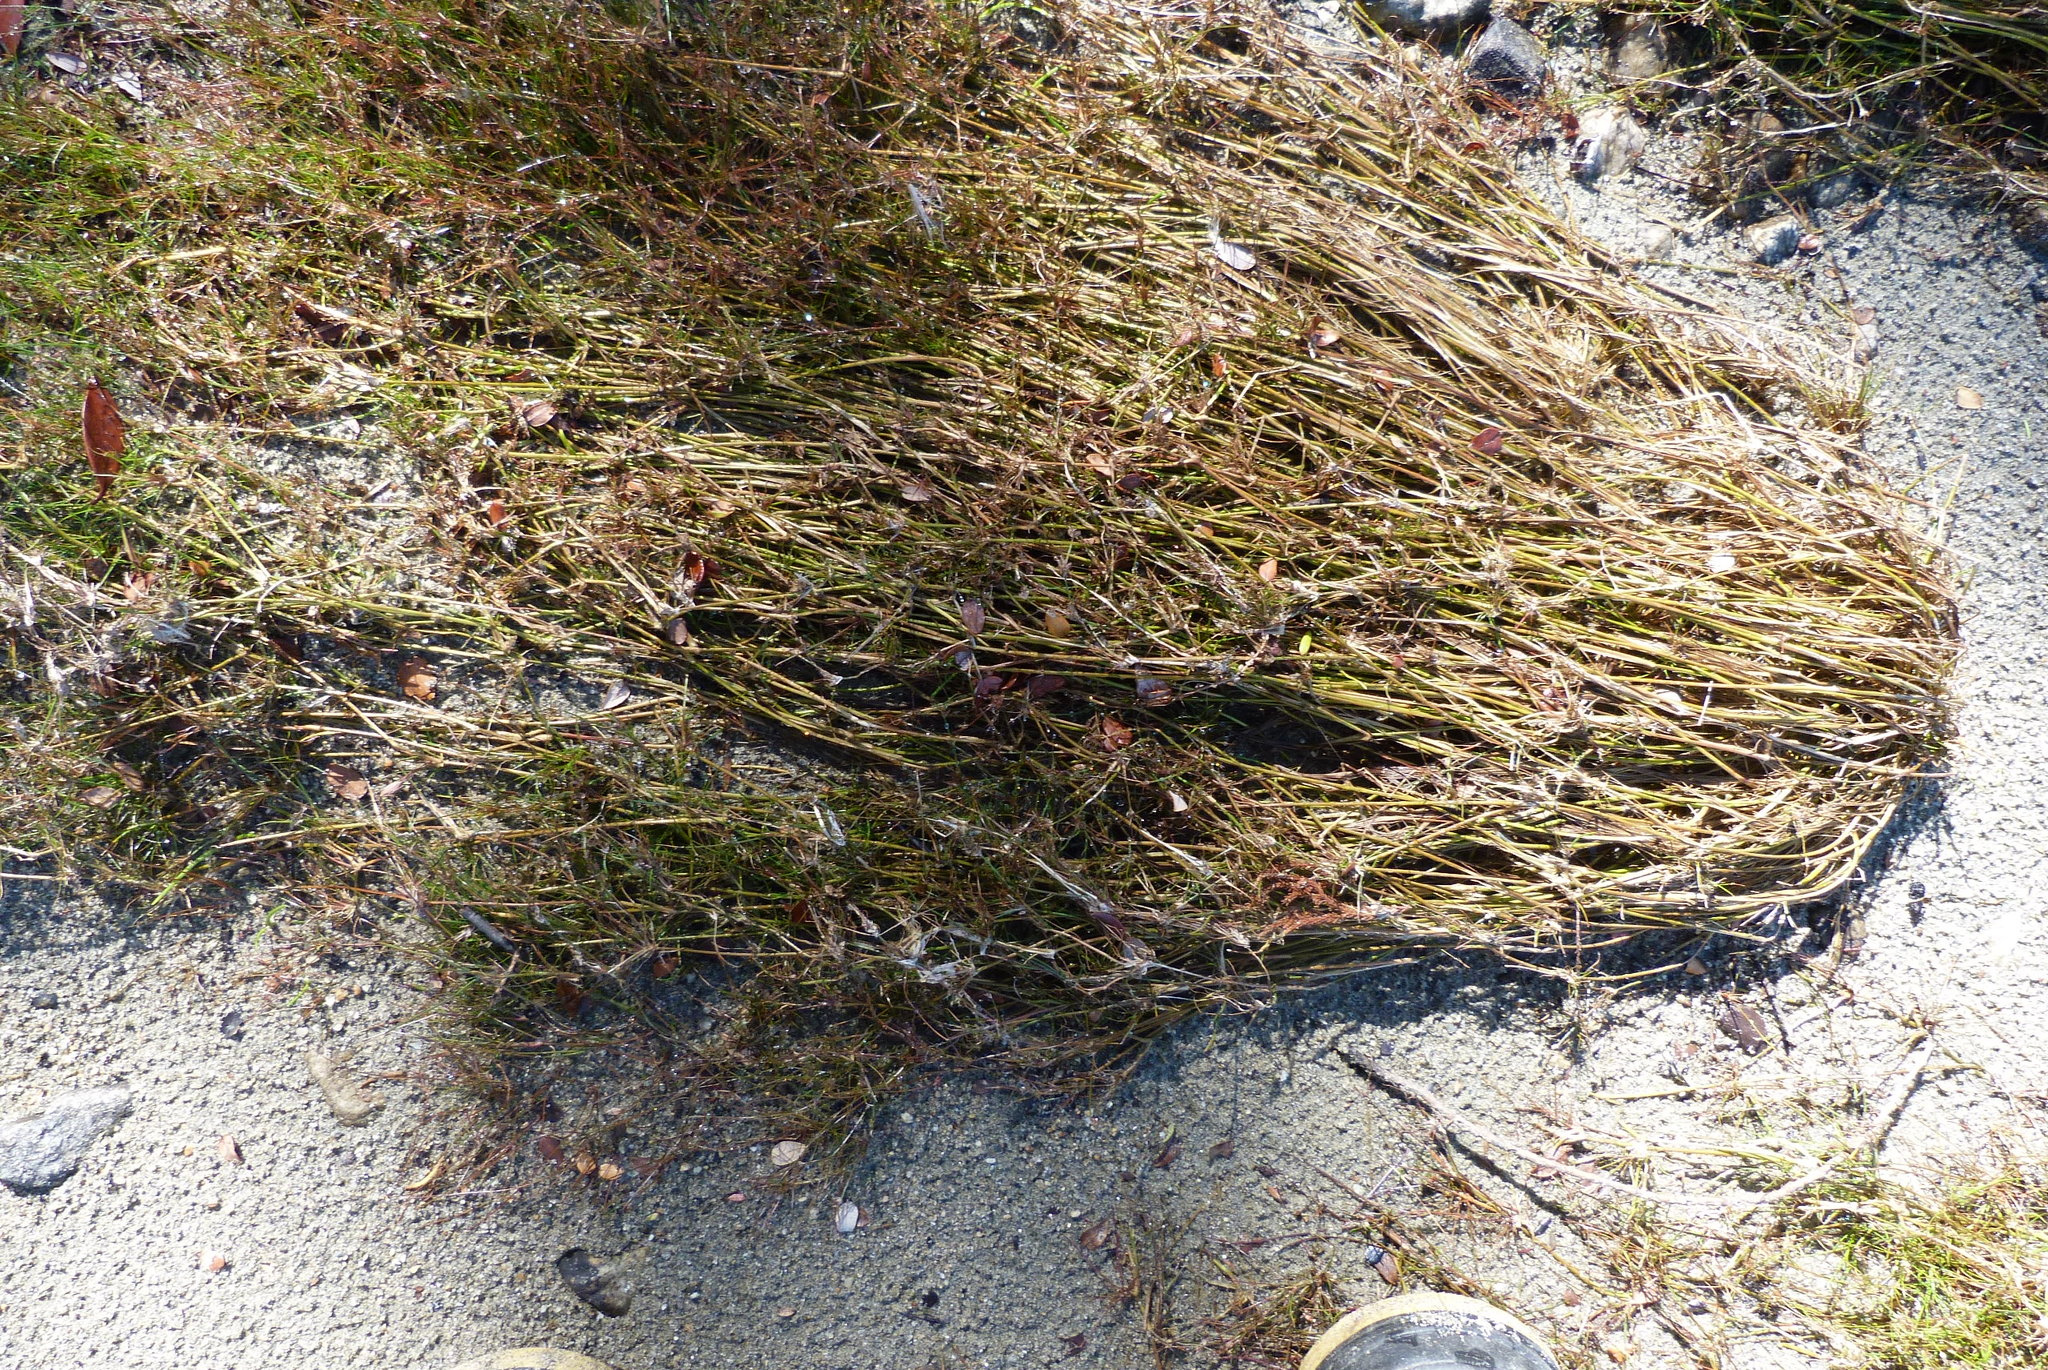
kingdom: Plantae
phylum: Tracheophyta
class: Liliopsida
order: Poales
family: Juncaceae
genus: Juncus
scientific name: Juncus bulbosus
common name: Bulbous rush
